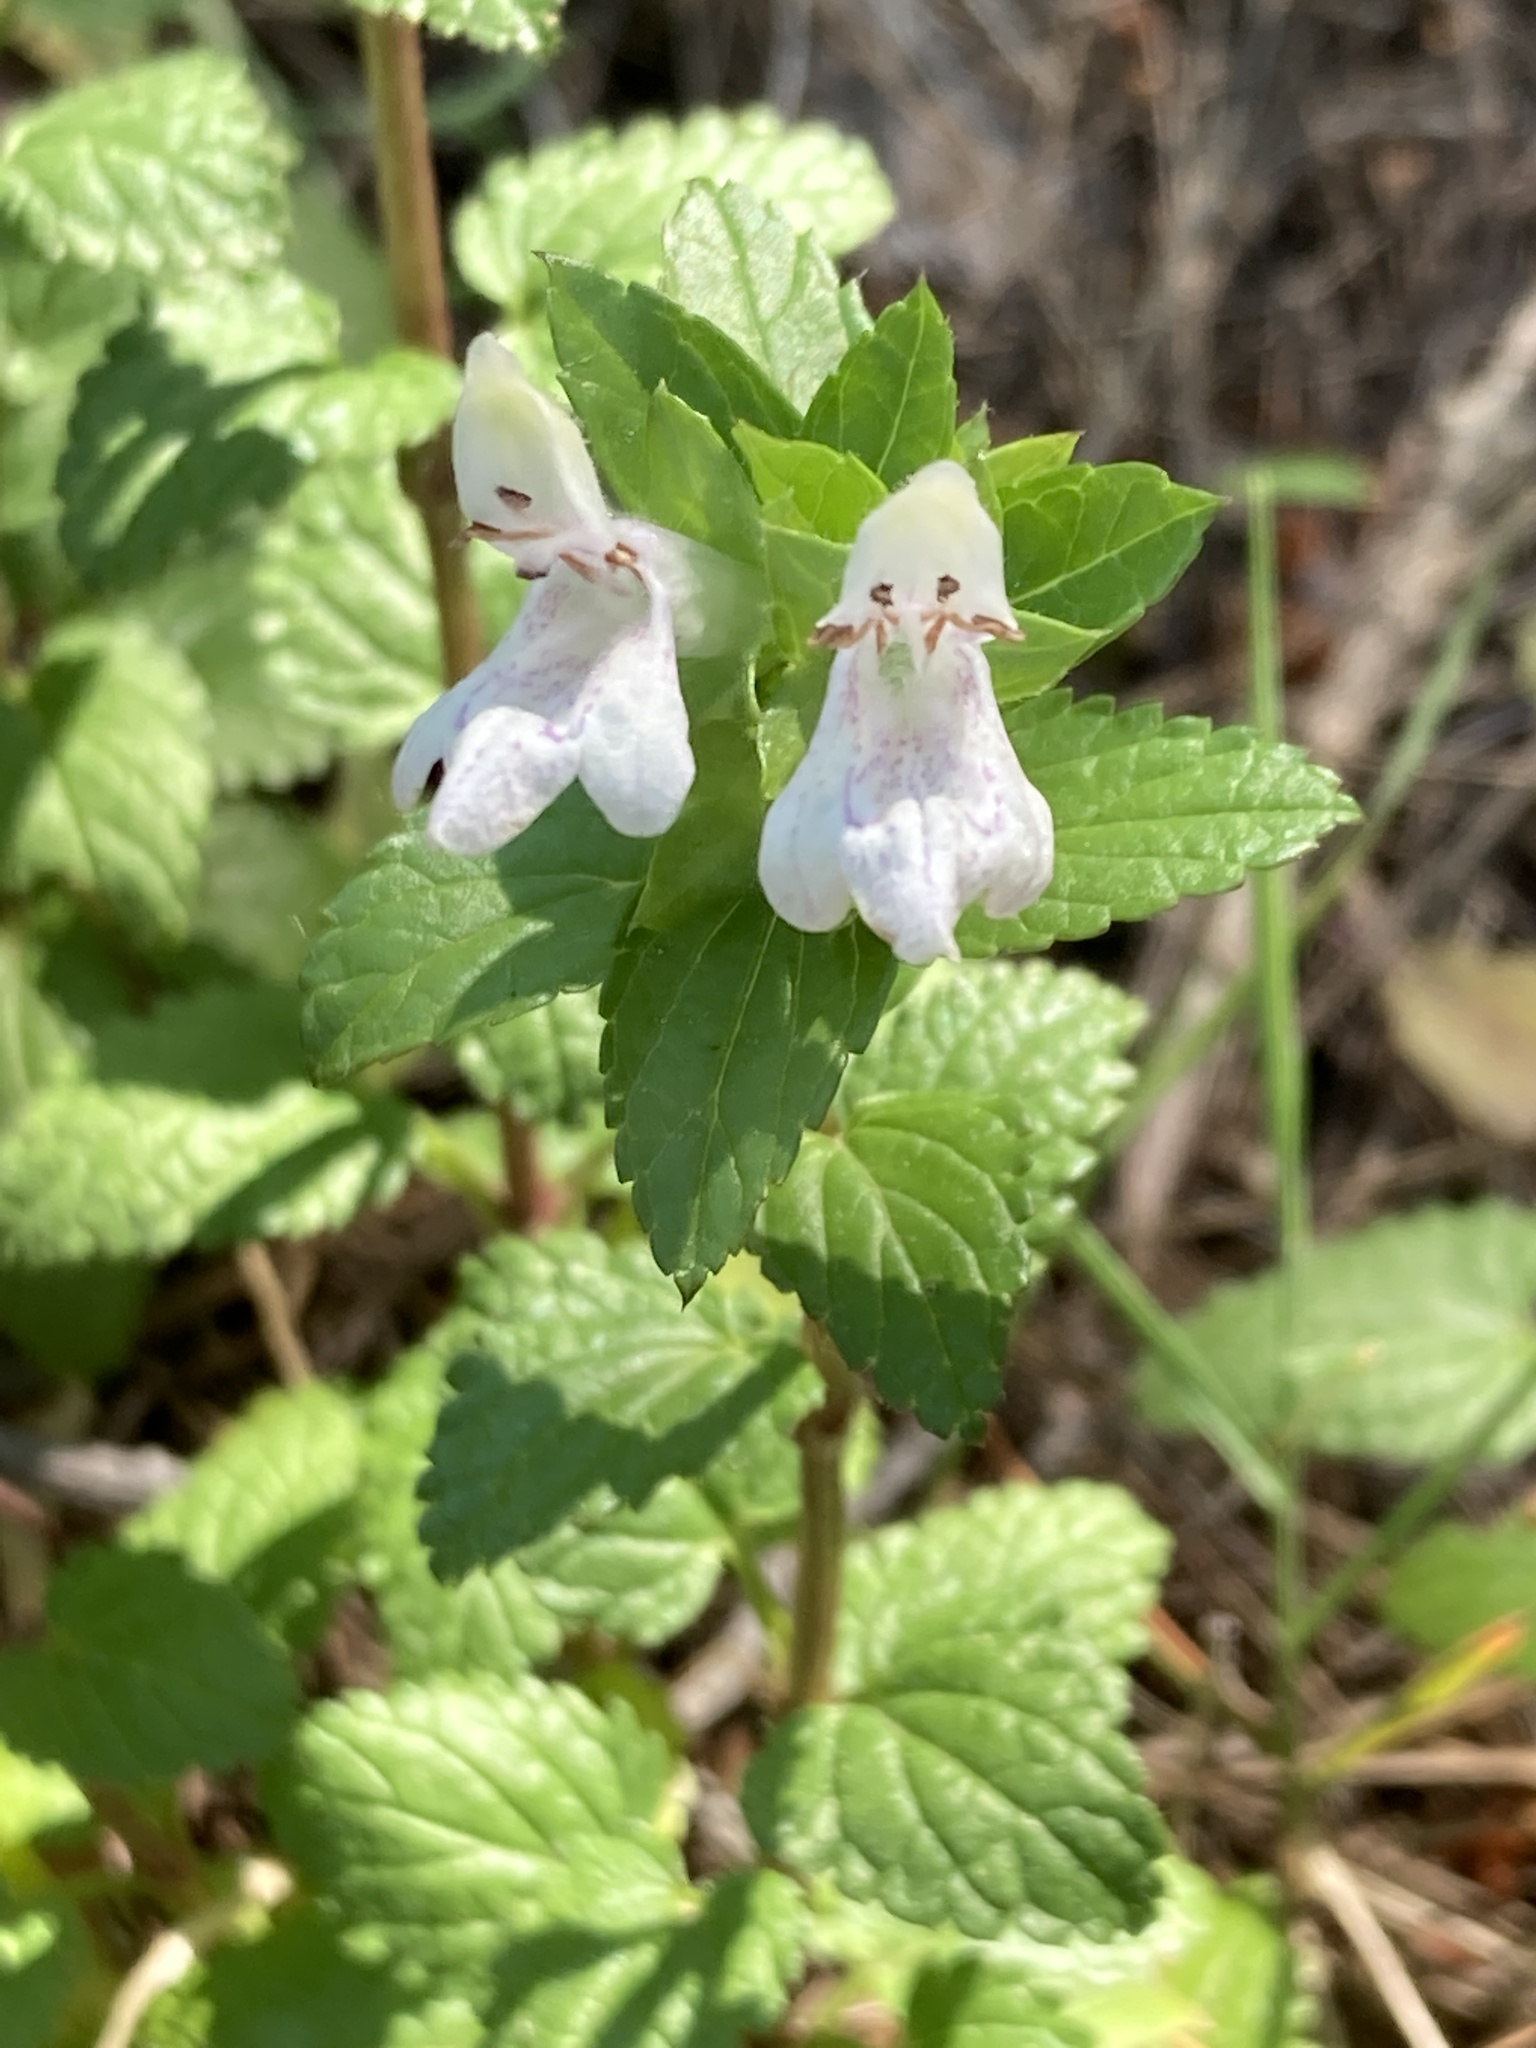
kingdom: Plantae
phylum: Tracheophyta
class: Magnoliopsida
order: Lamiales
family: Lamiaceae
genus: Prasium
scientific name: Prasium majus
